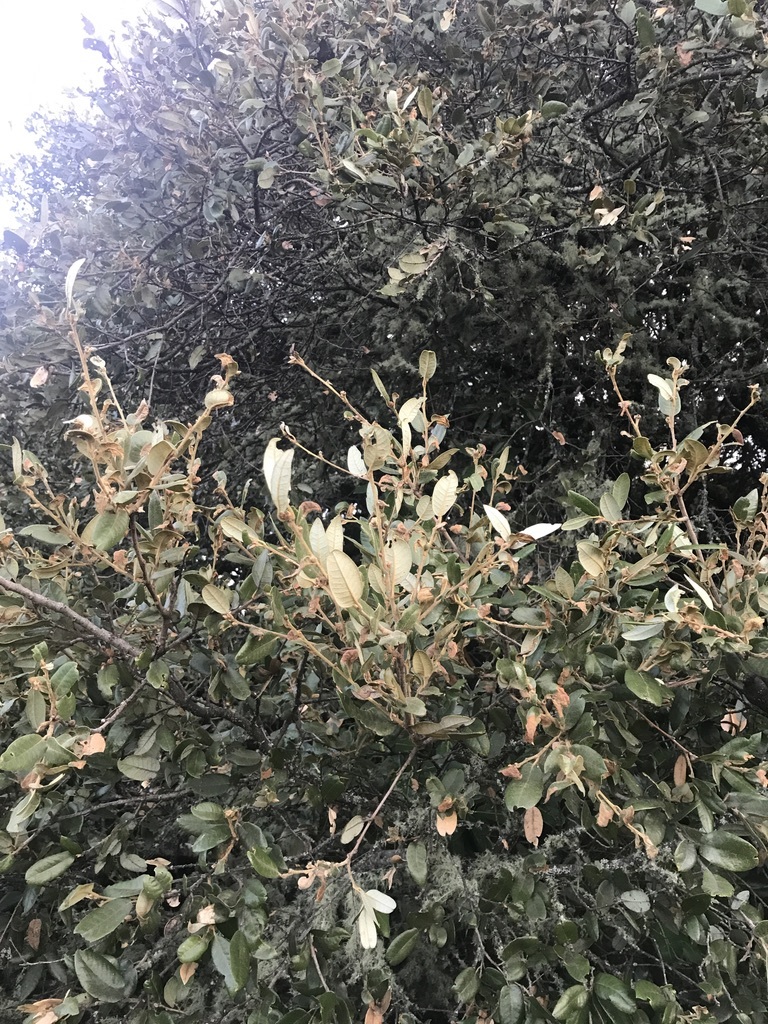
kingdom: Plantae
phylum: Tracheophyta
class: Magnoliopsida
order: Fagales
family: Fagaceae
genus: Quercus
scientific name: Quercus chrysolepis
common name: Canyon live oak
